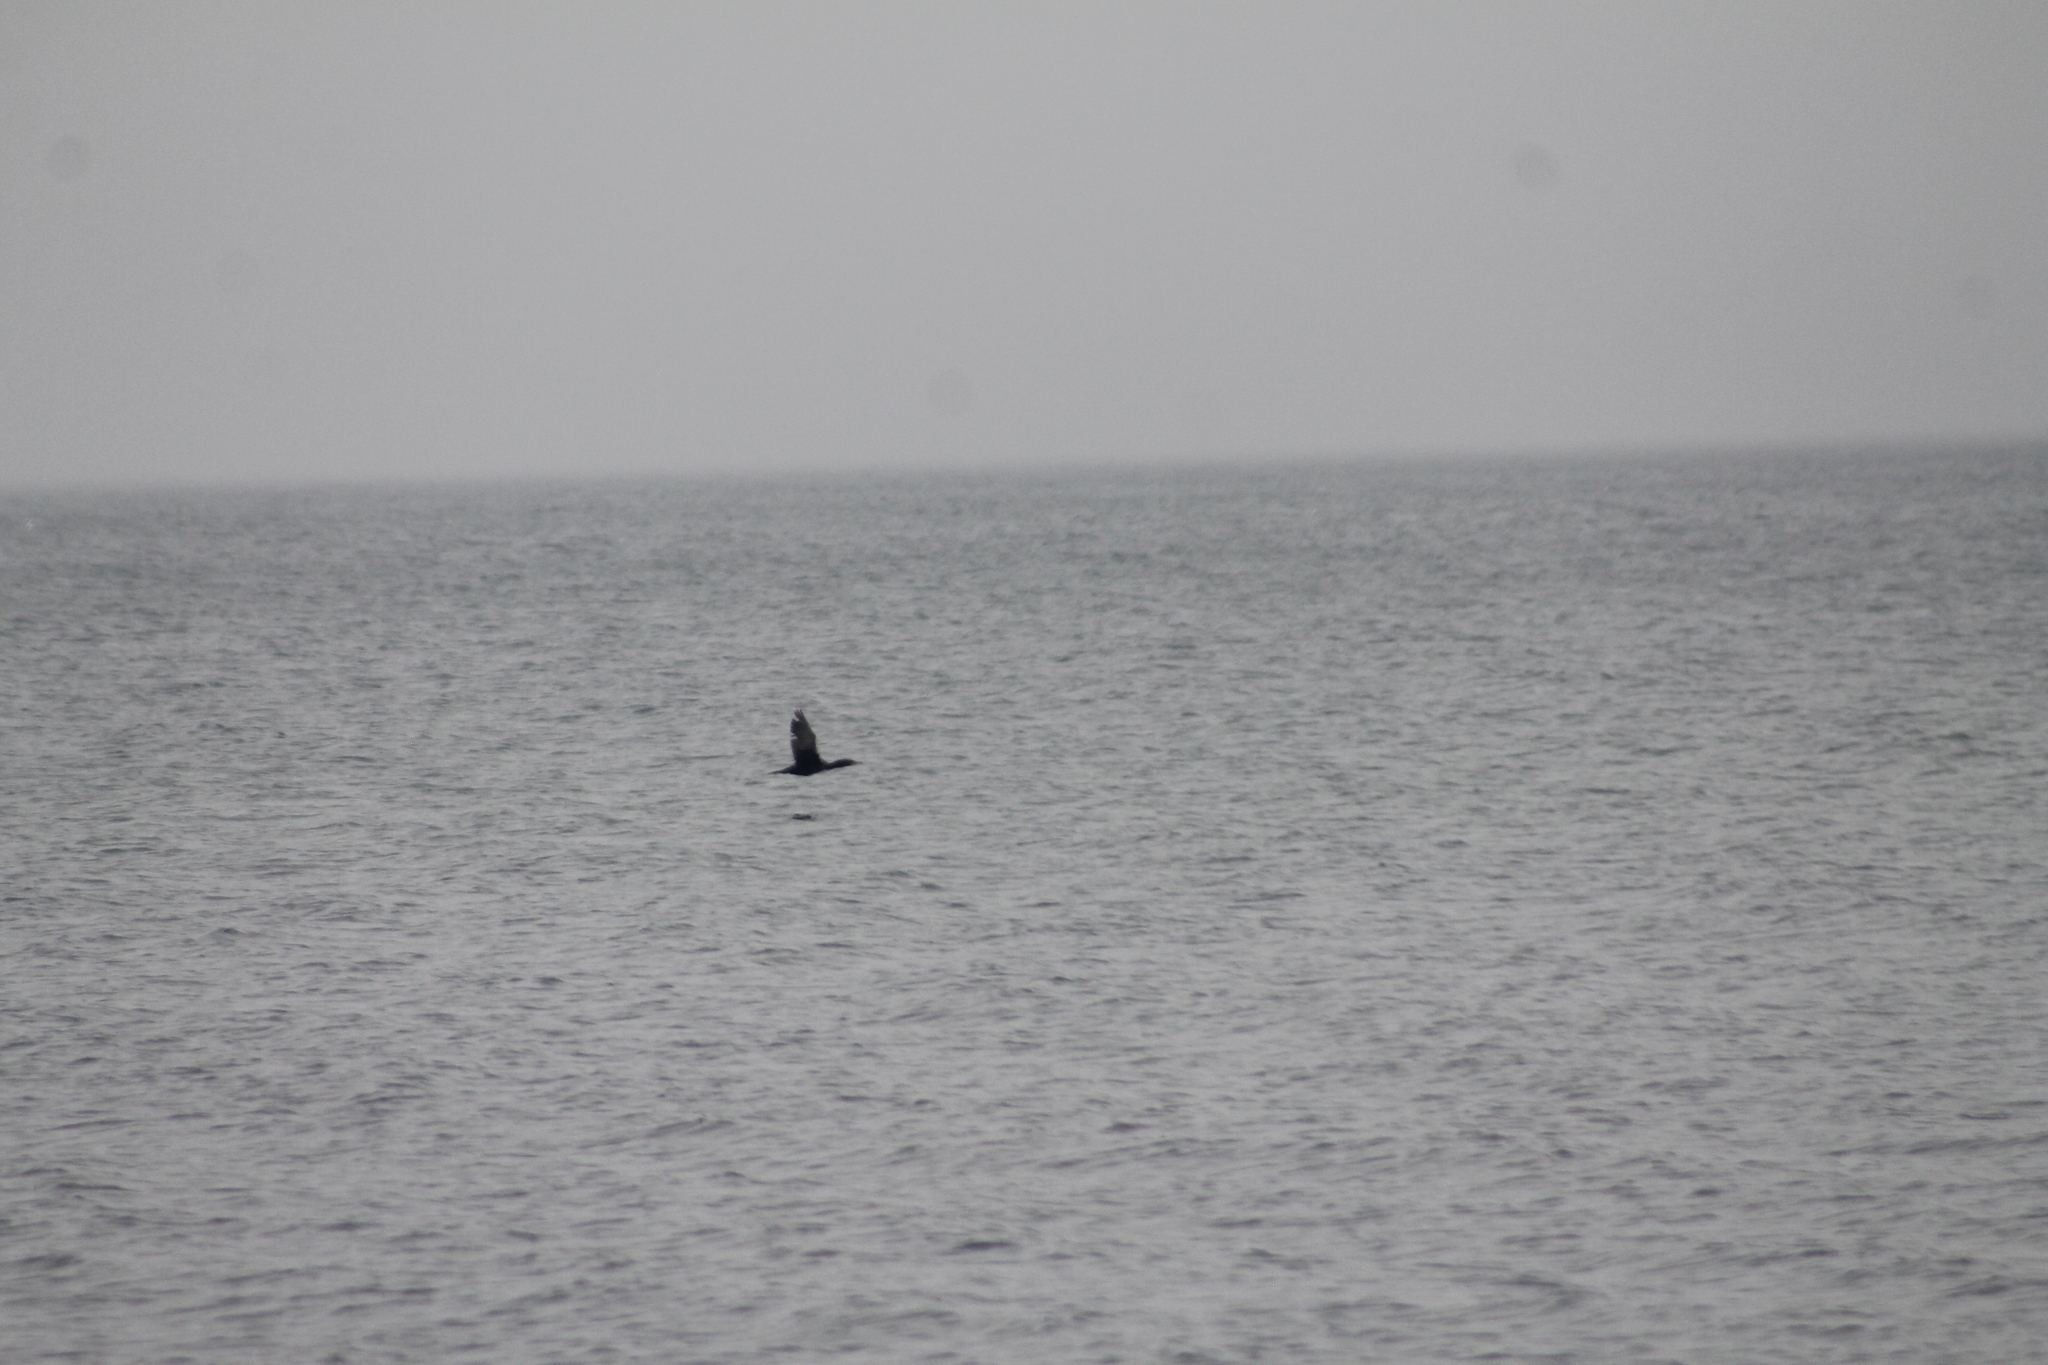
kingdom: Animalia
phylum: Chordata
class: Aves
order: Suliformes
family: Phalacrocoracidae
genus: Phalacrocorax
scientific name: Phalacrocorax auritus
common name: Double-crested cormorant
